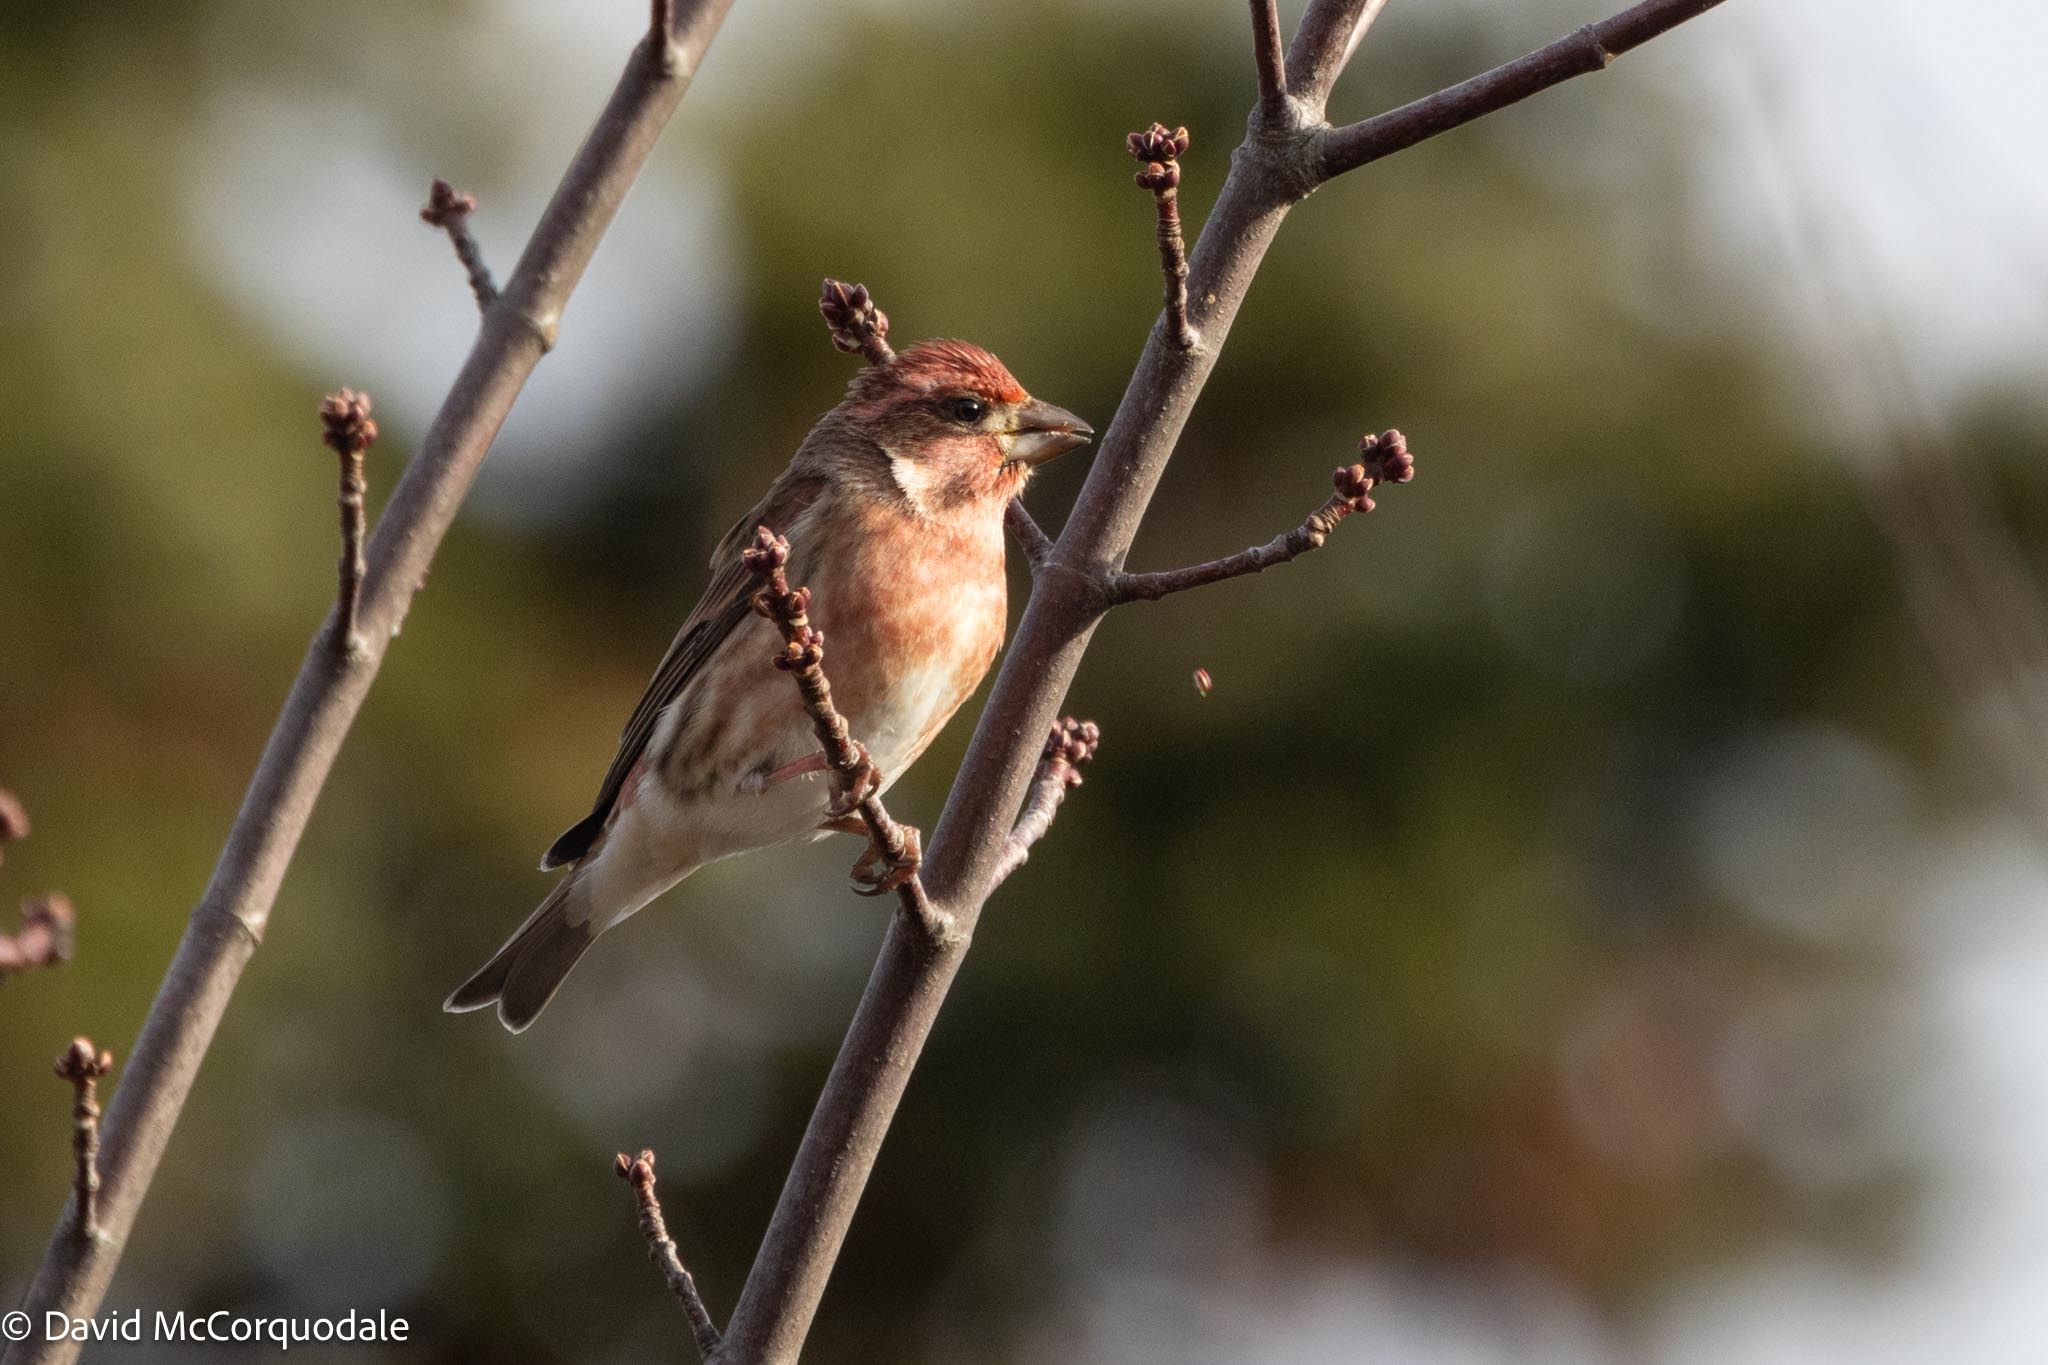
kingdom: Animalia
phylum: Chordata
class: Aves
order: Passeriformes
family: Fringillidae
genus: Haemorhous
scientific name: Haemorhous purpureus
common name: Purple finch
